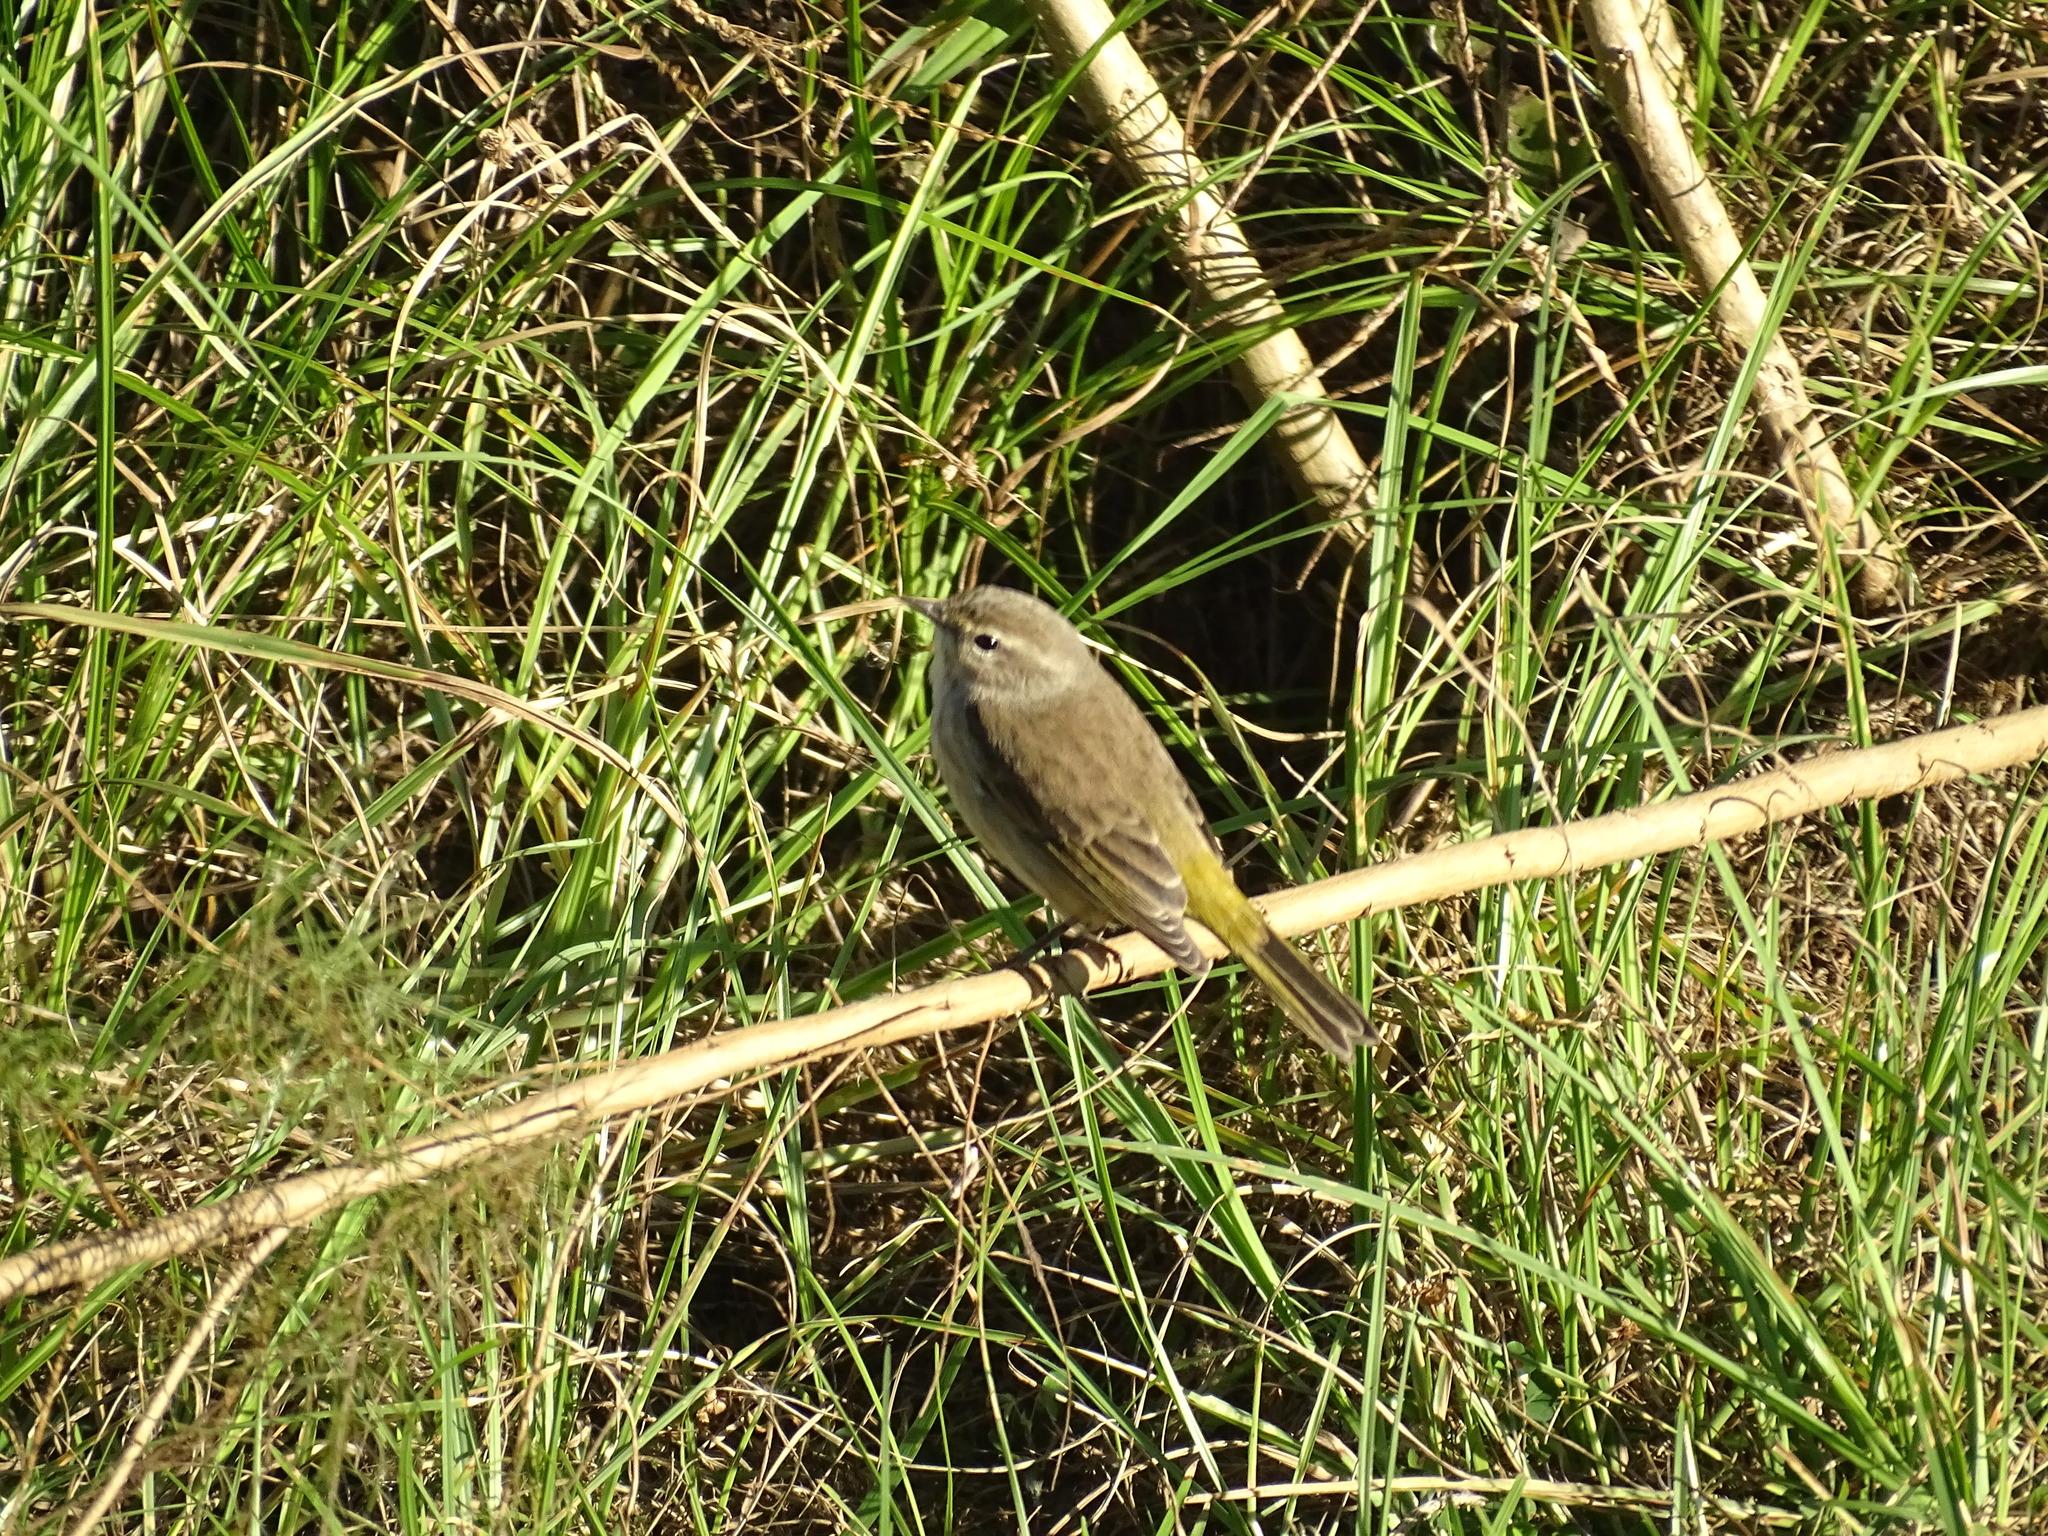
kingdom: Animalia
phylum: Chordata
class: Aves
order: Passeriformes
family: Parulidae
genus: Setophaga
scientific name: Setophaga palmarum
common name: Palm warbler
